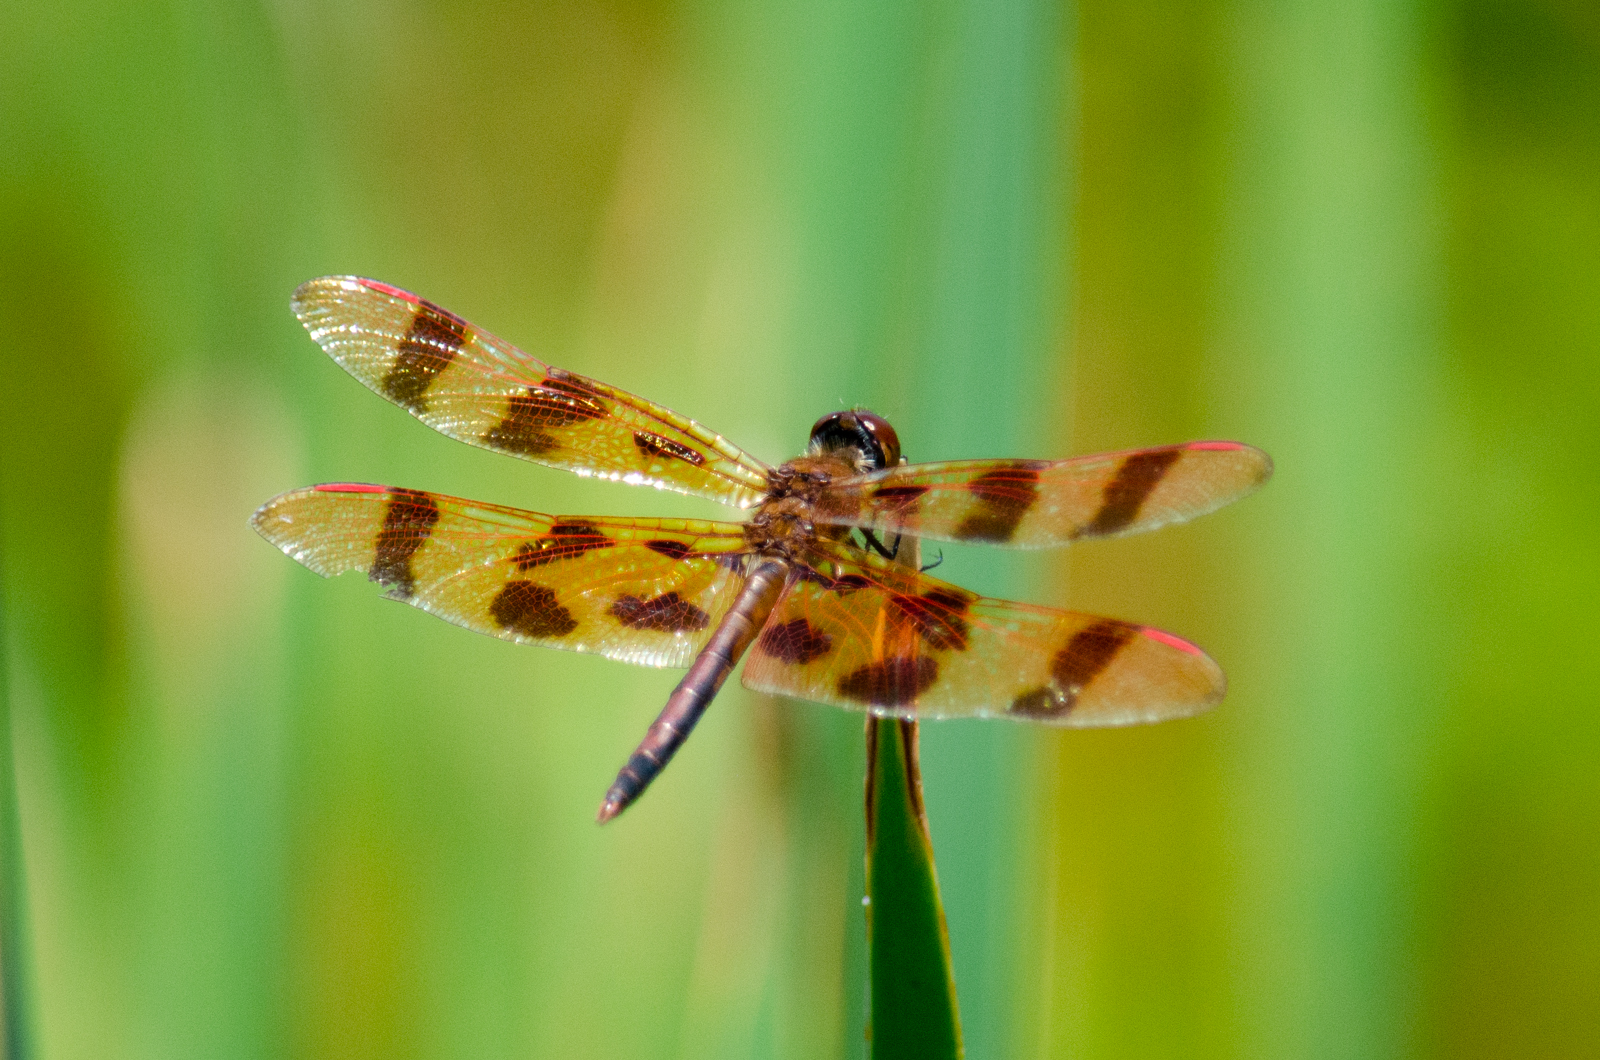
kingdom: Animalia
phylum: Arthropoda
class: Insecta
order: Odonata
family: Libellulidae
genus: Celithemis
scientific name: Celithemis eponina
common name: Halloween pennant
